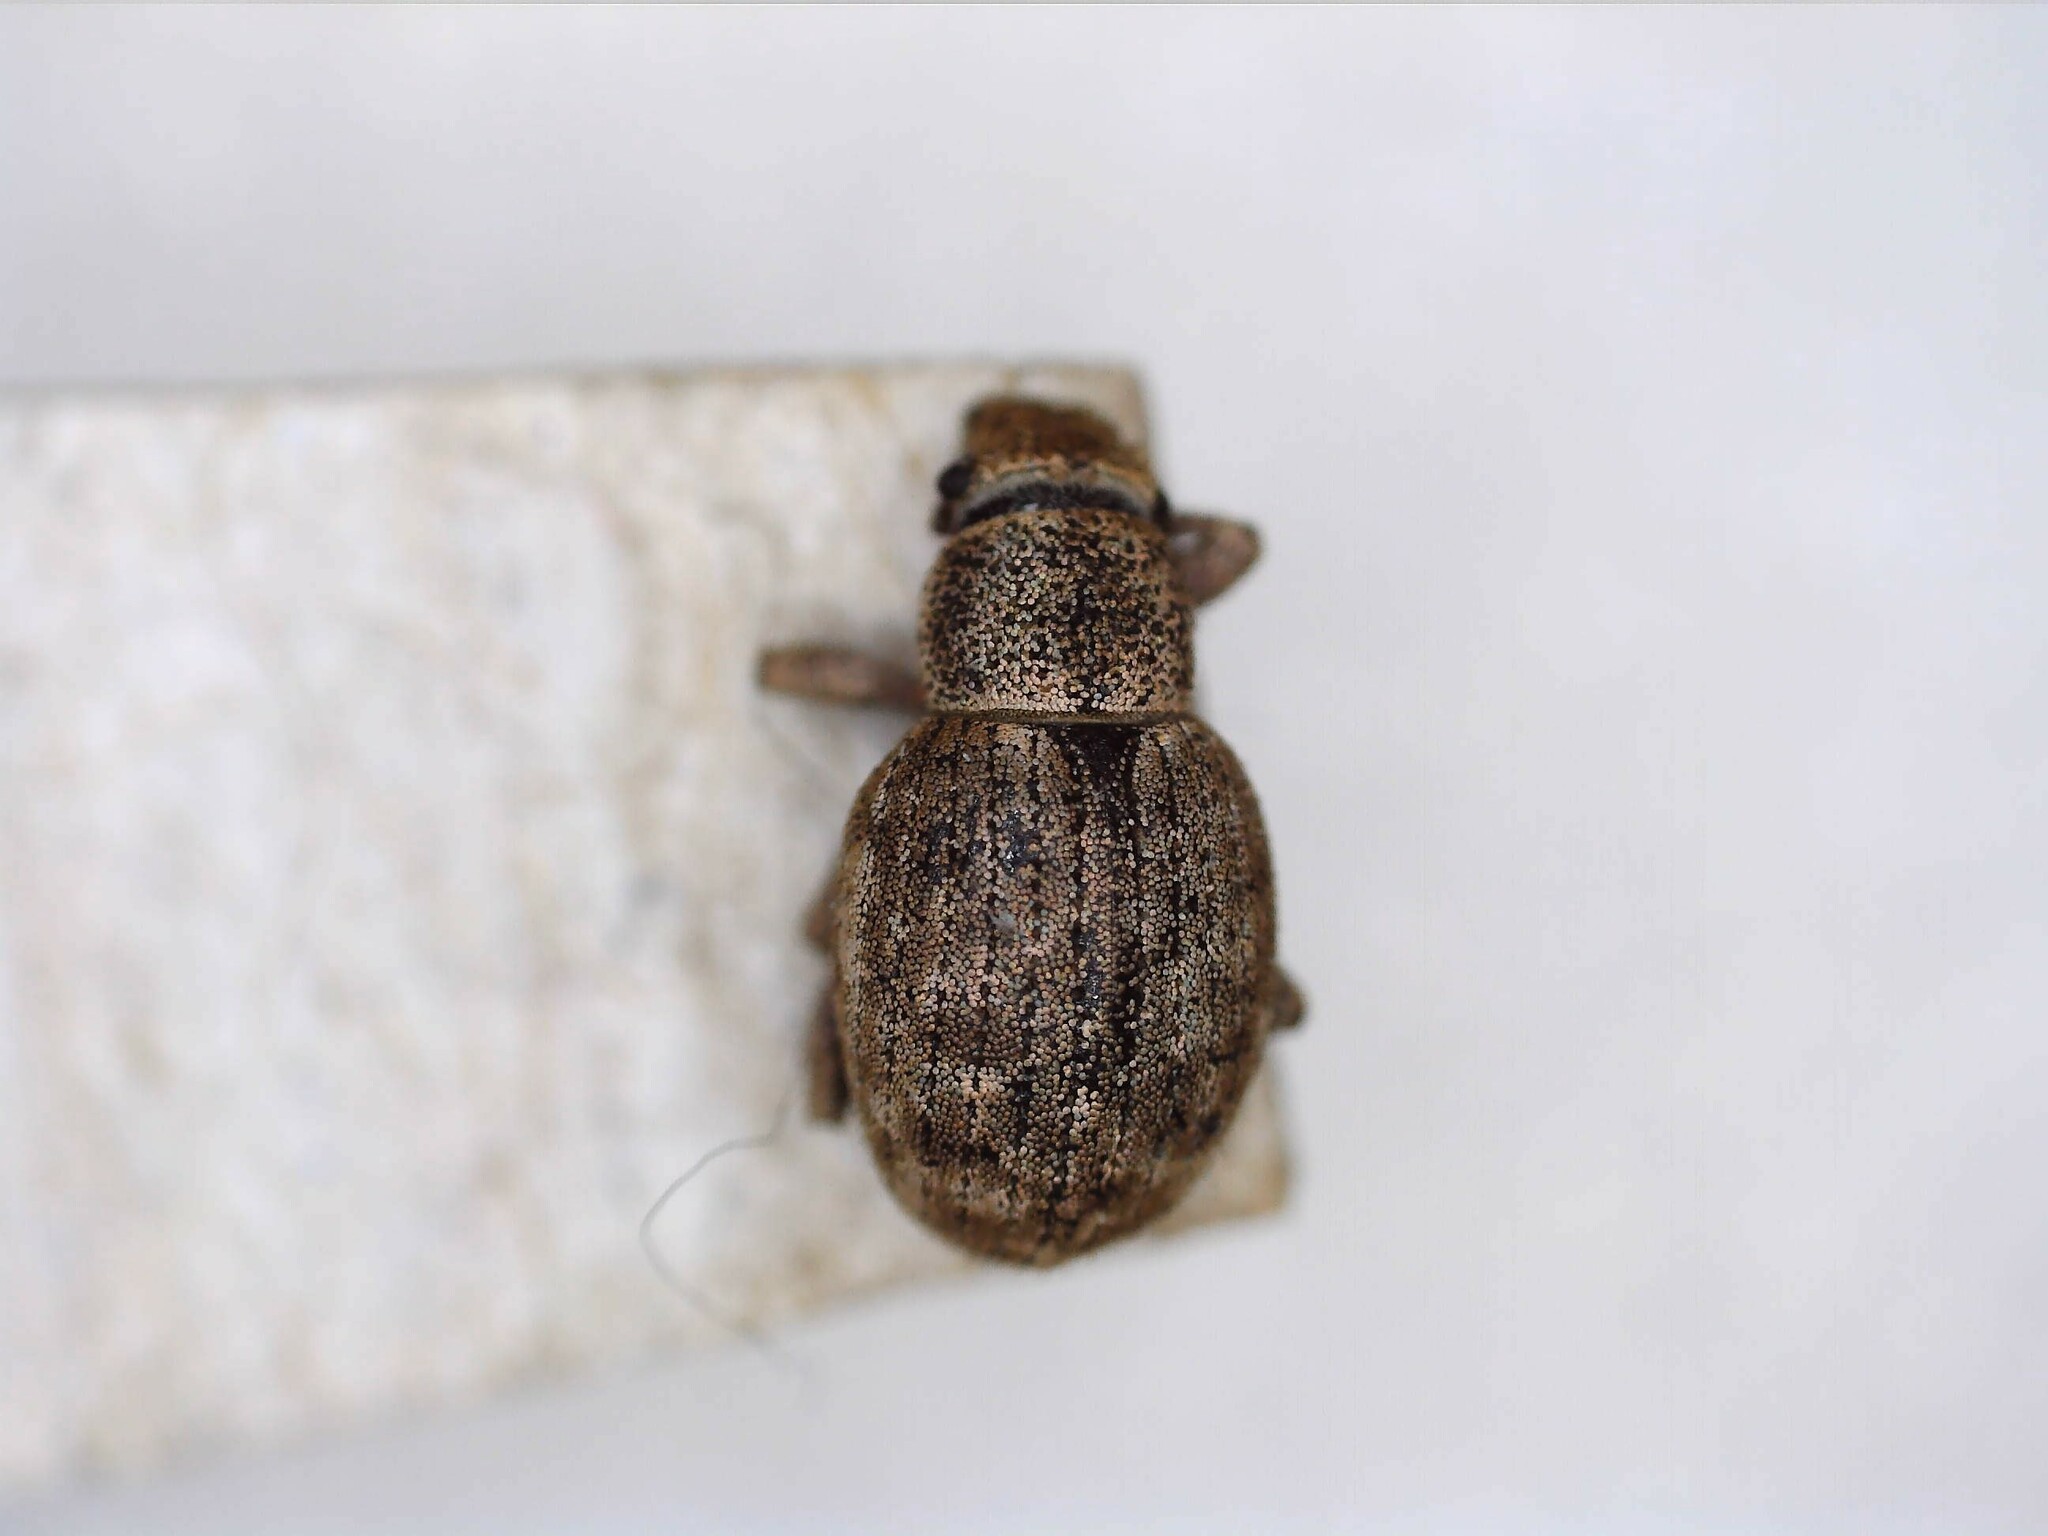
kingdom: Animalia
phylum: Arthropoda
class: Insecta
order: Coleoptera
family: Curculionidae
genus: Strophosoma
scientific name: Strophosoma capitatum
